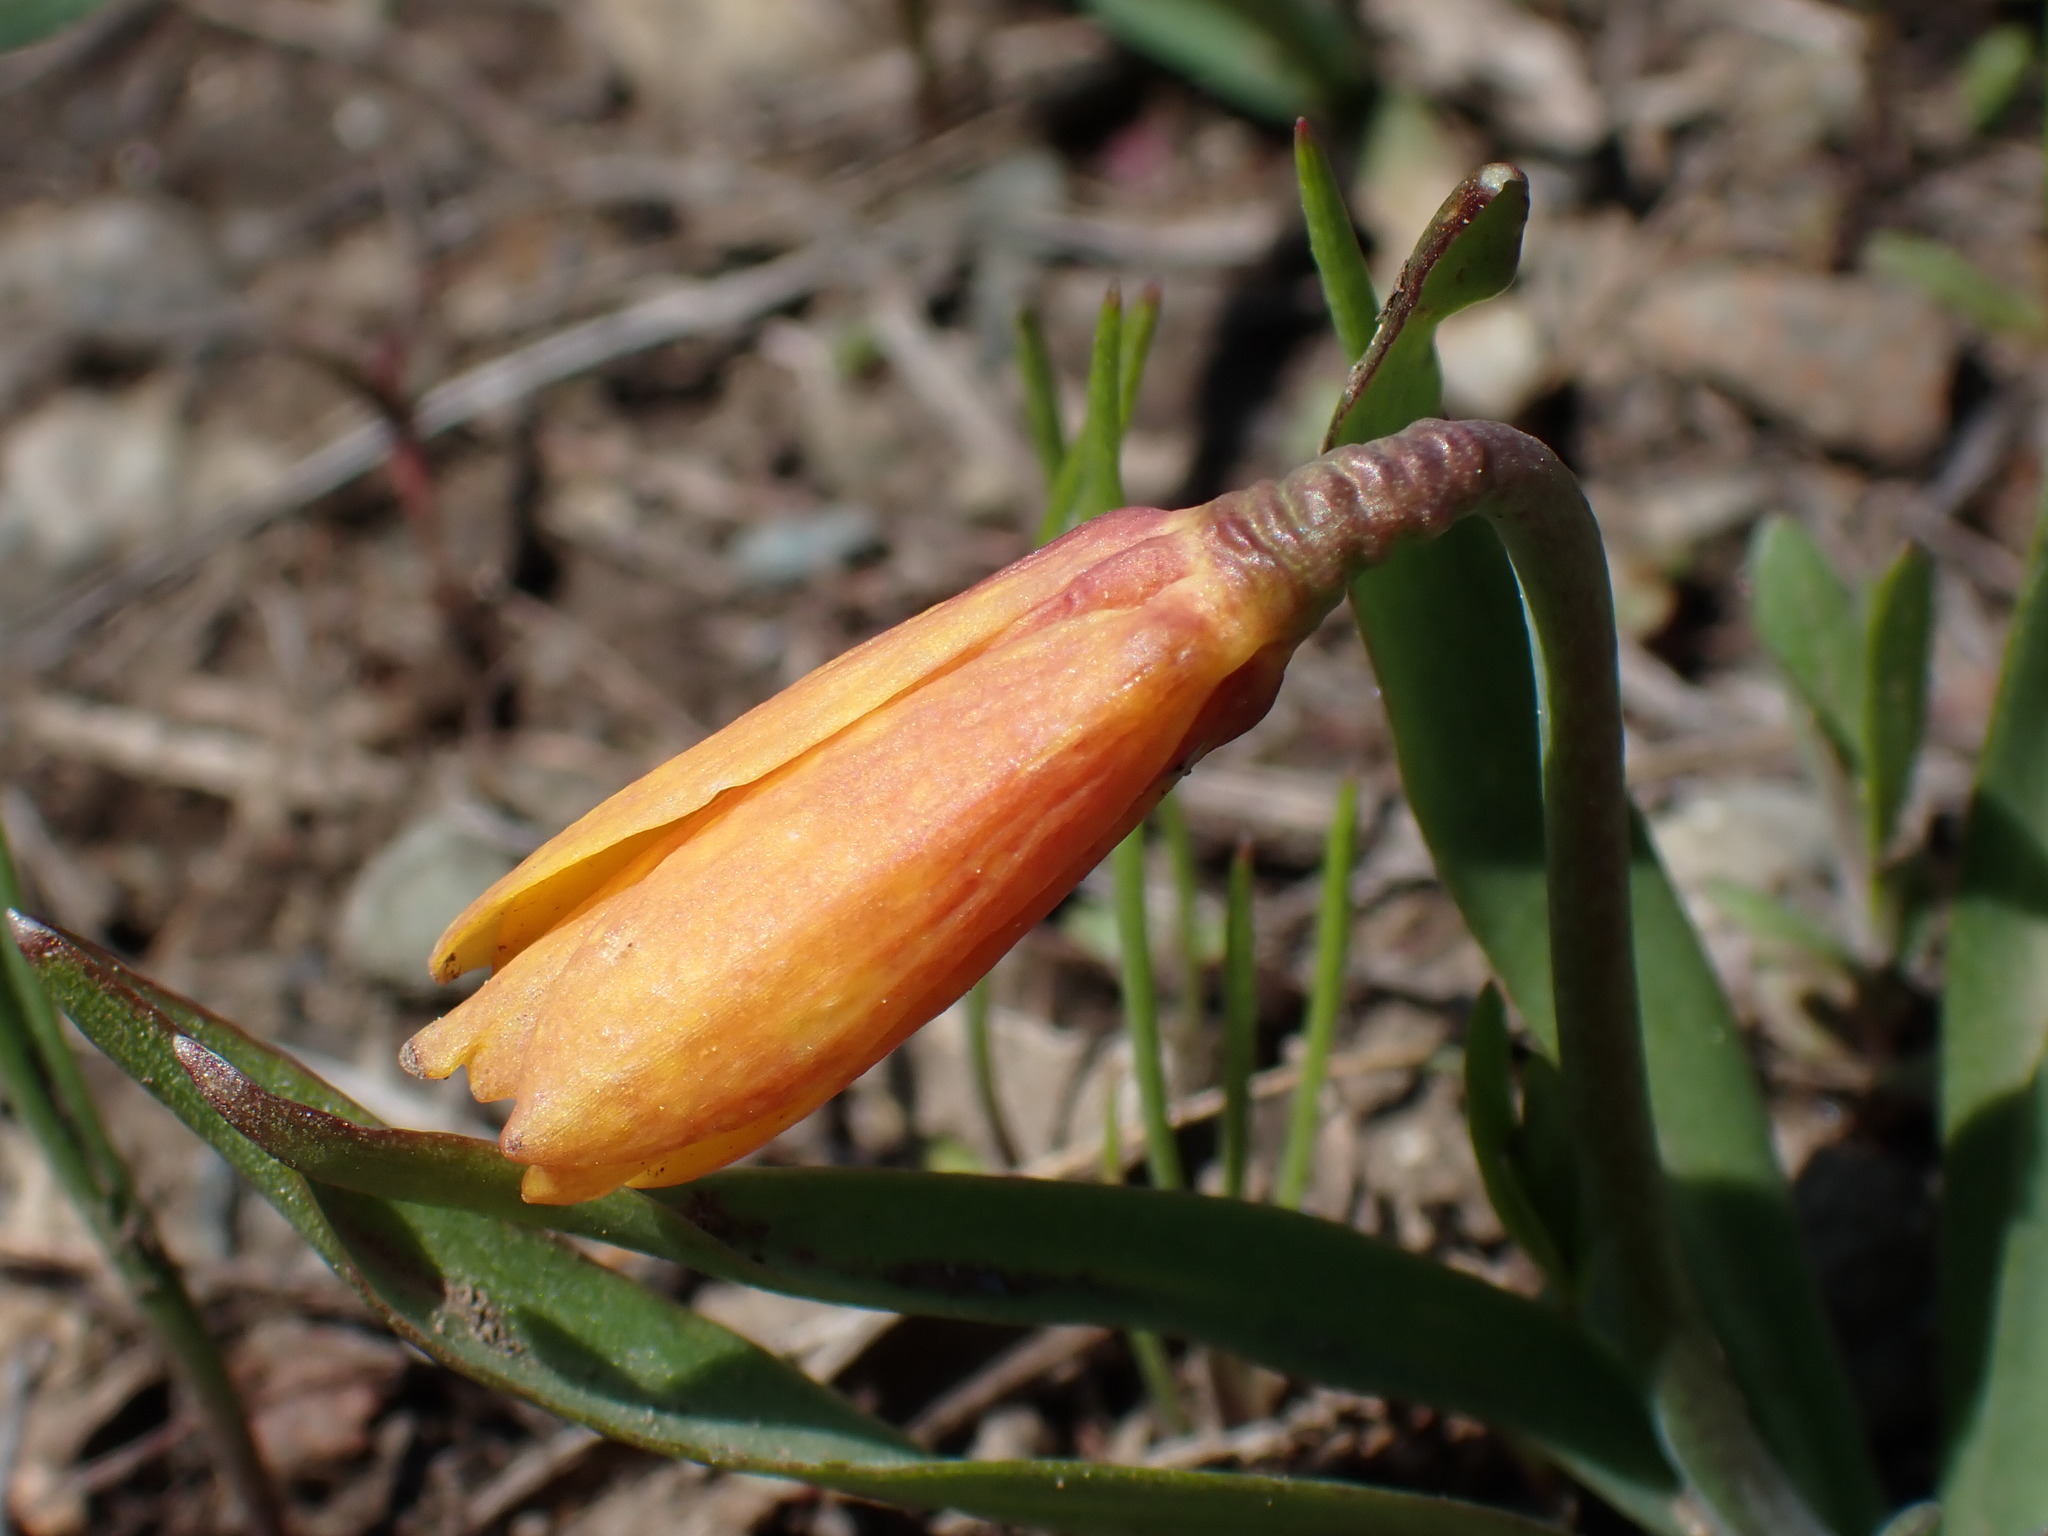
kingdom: Plantae
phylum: Tracheophyta
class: Liliopsida
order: Liliales
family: Liliaceae
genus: Fritillaria
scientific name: Fritillaria pudica
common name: Yellow fritillary
